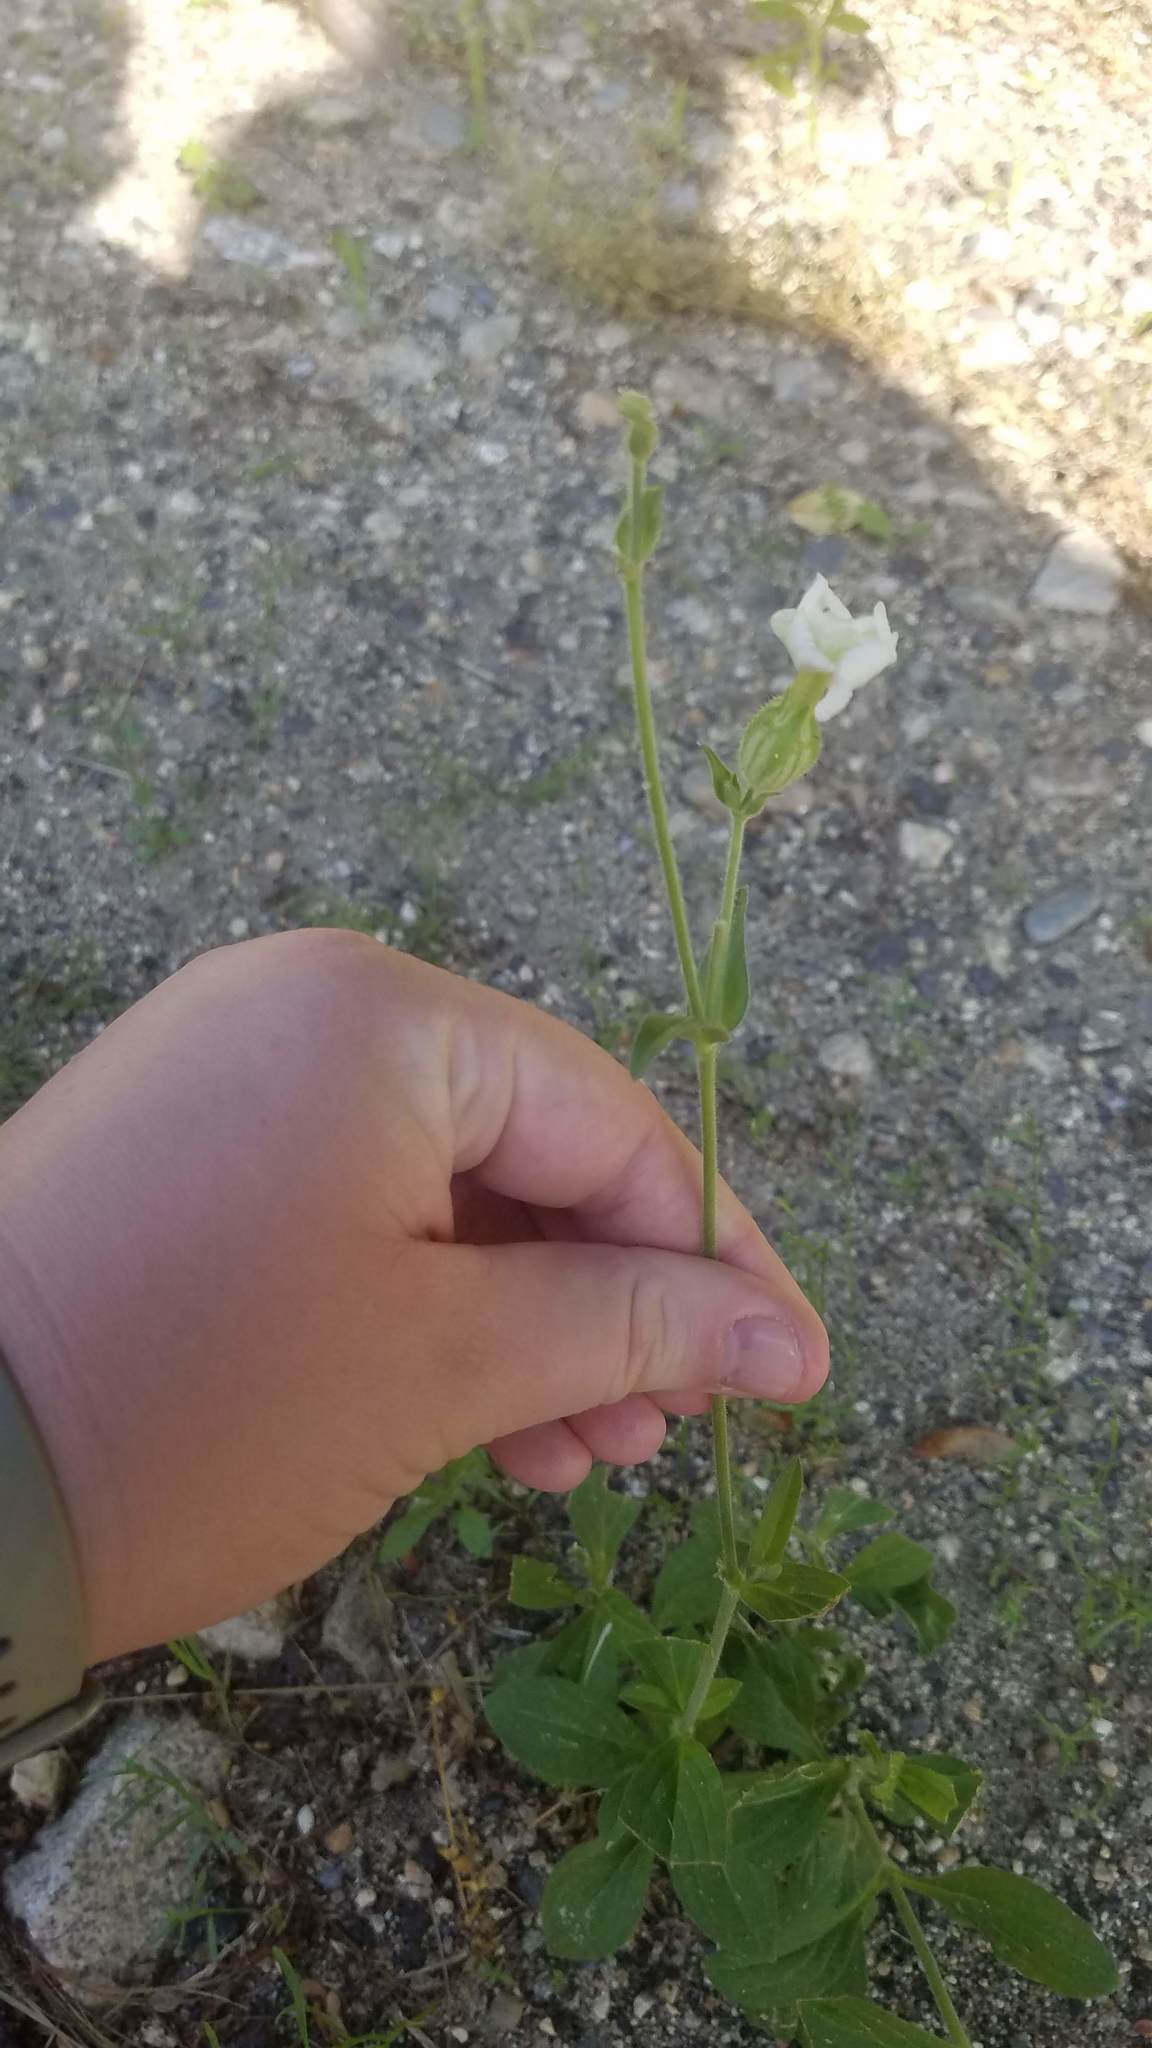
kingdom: Plantae
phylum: Tracheophyta
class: Magnoliopsida
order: Caryophyllales
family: Caryophyllaceae
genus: Silene
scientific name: Silene latifolia
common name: White campion
